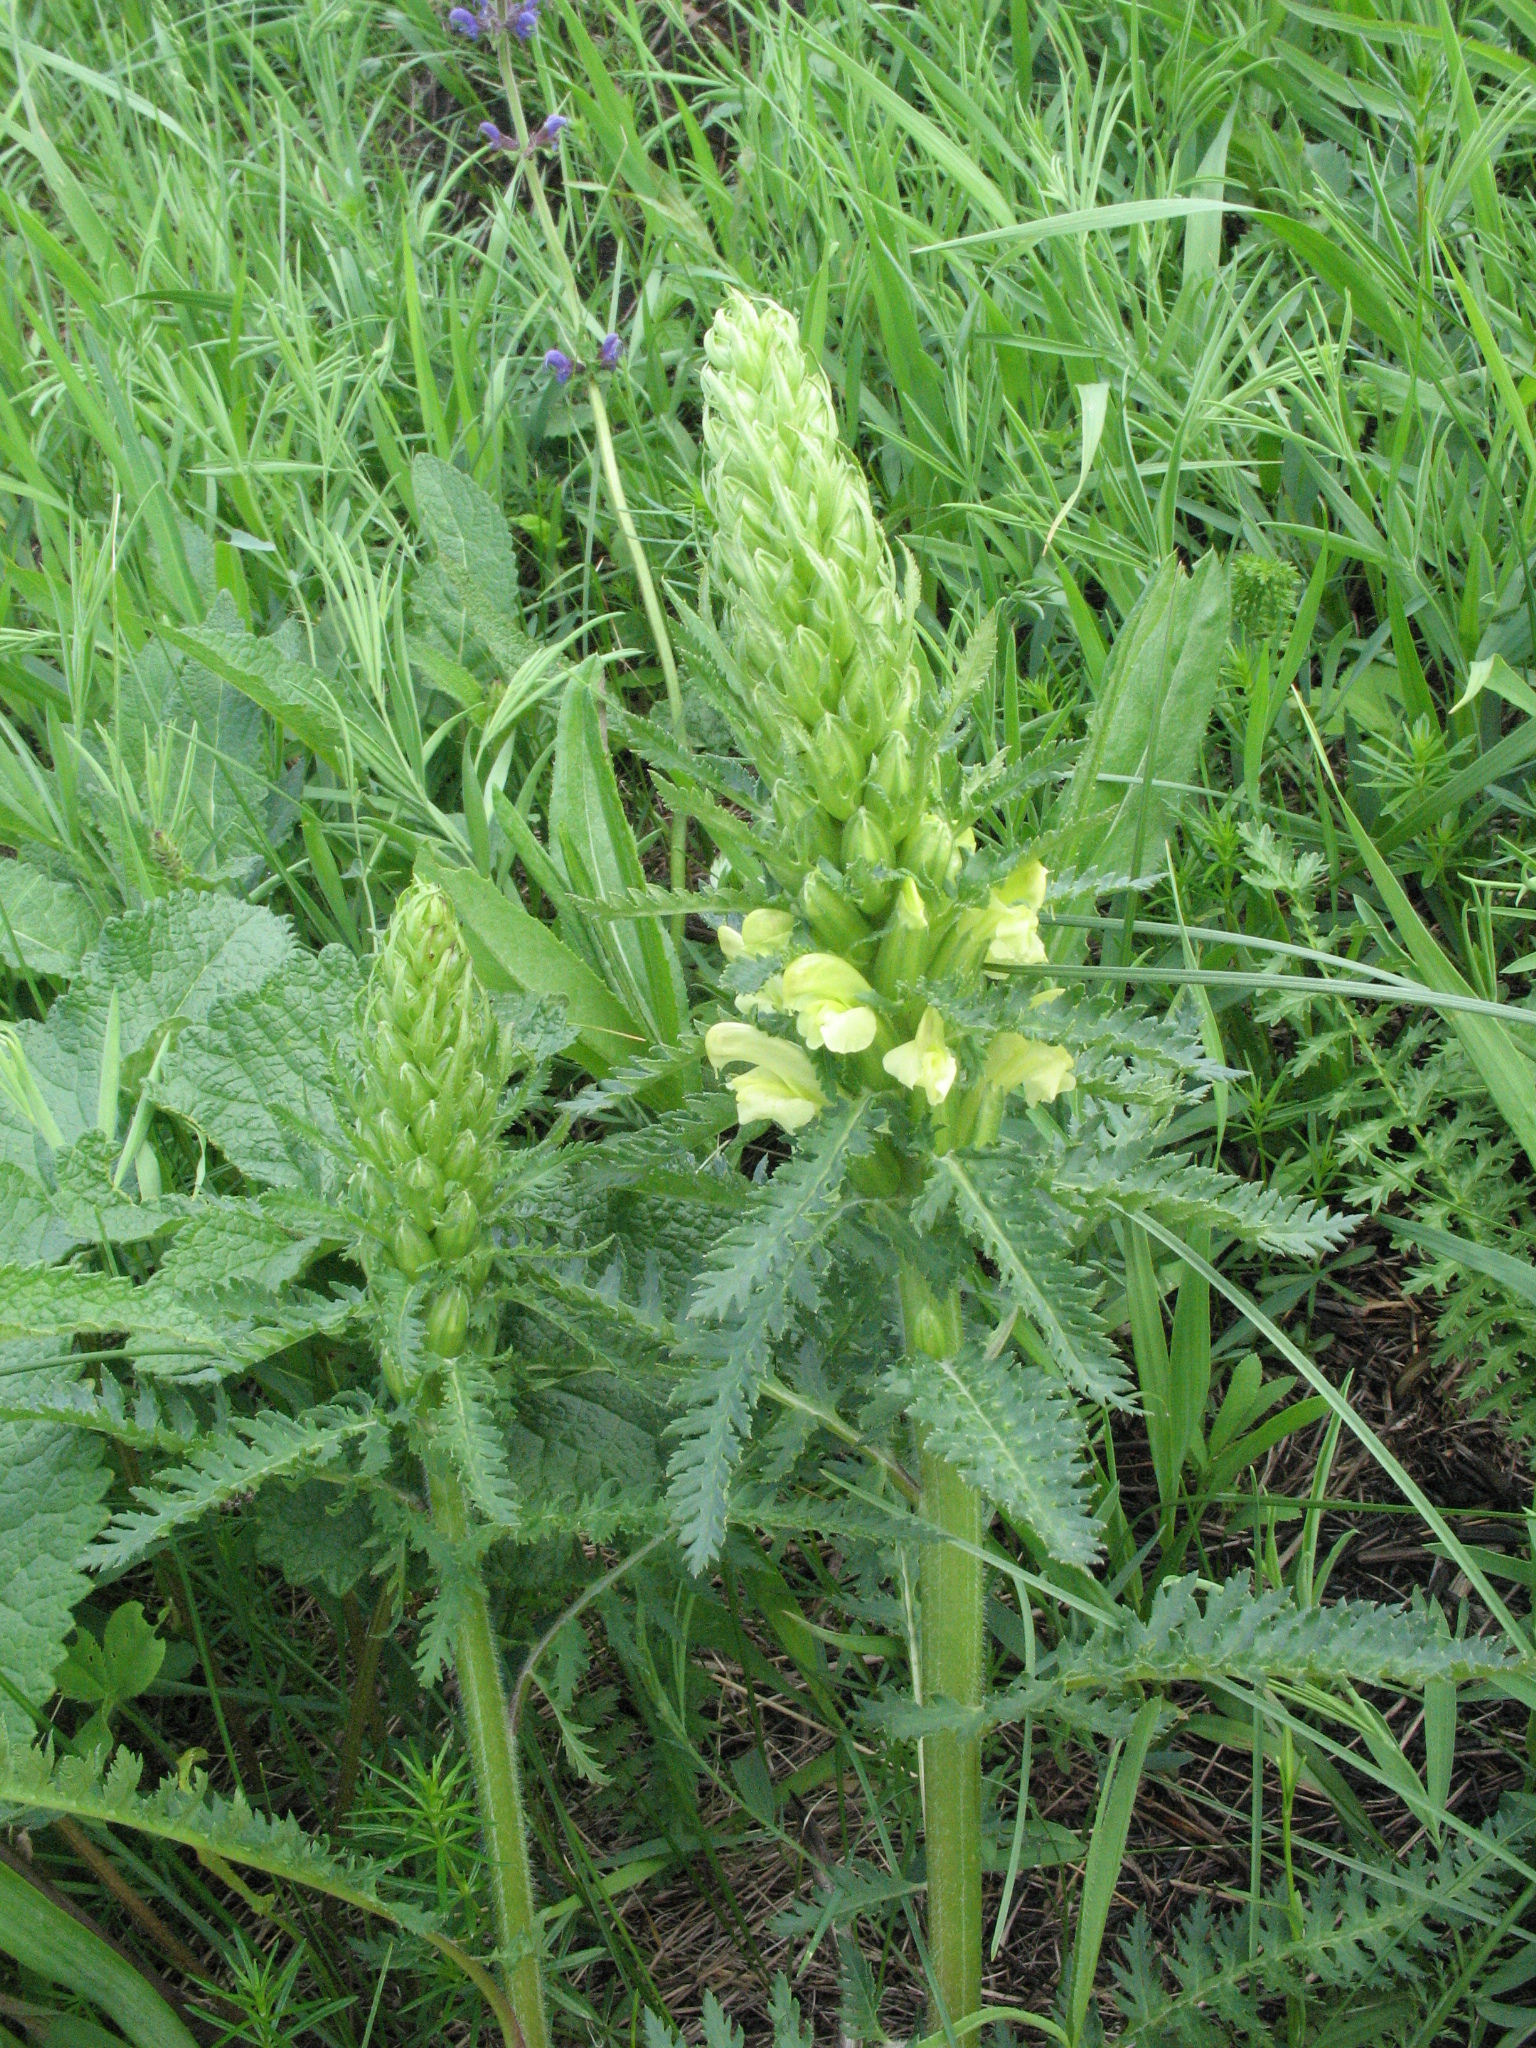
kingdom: Plantae
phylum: Tracheophyta
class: Magnoliopsida
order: Lamiales
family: Orobanchaceae
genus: Pedicularis
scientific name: Pedicularis kaufmannii
